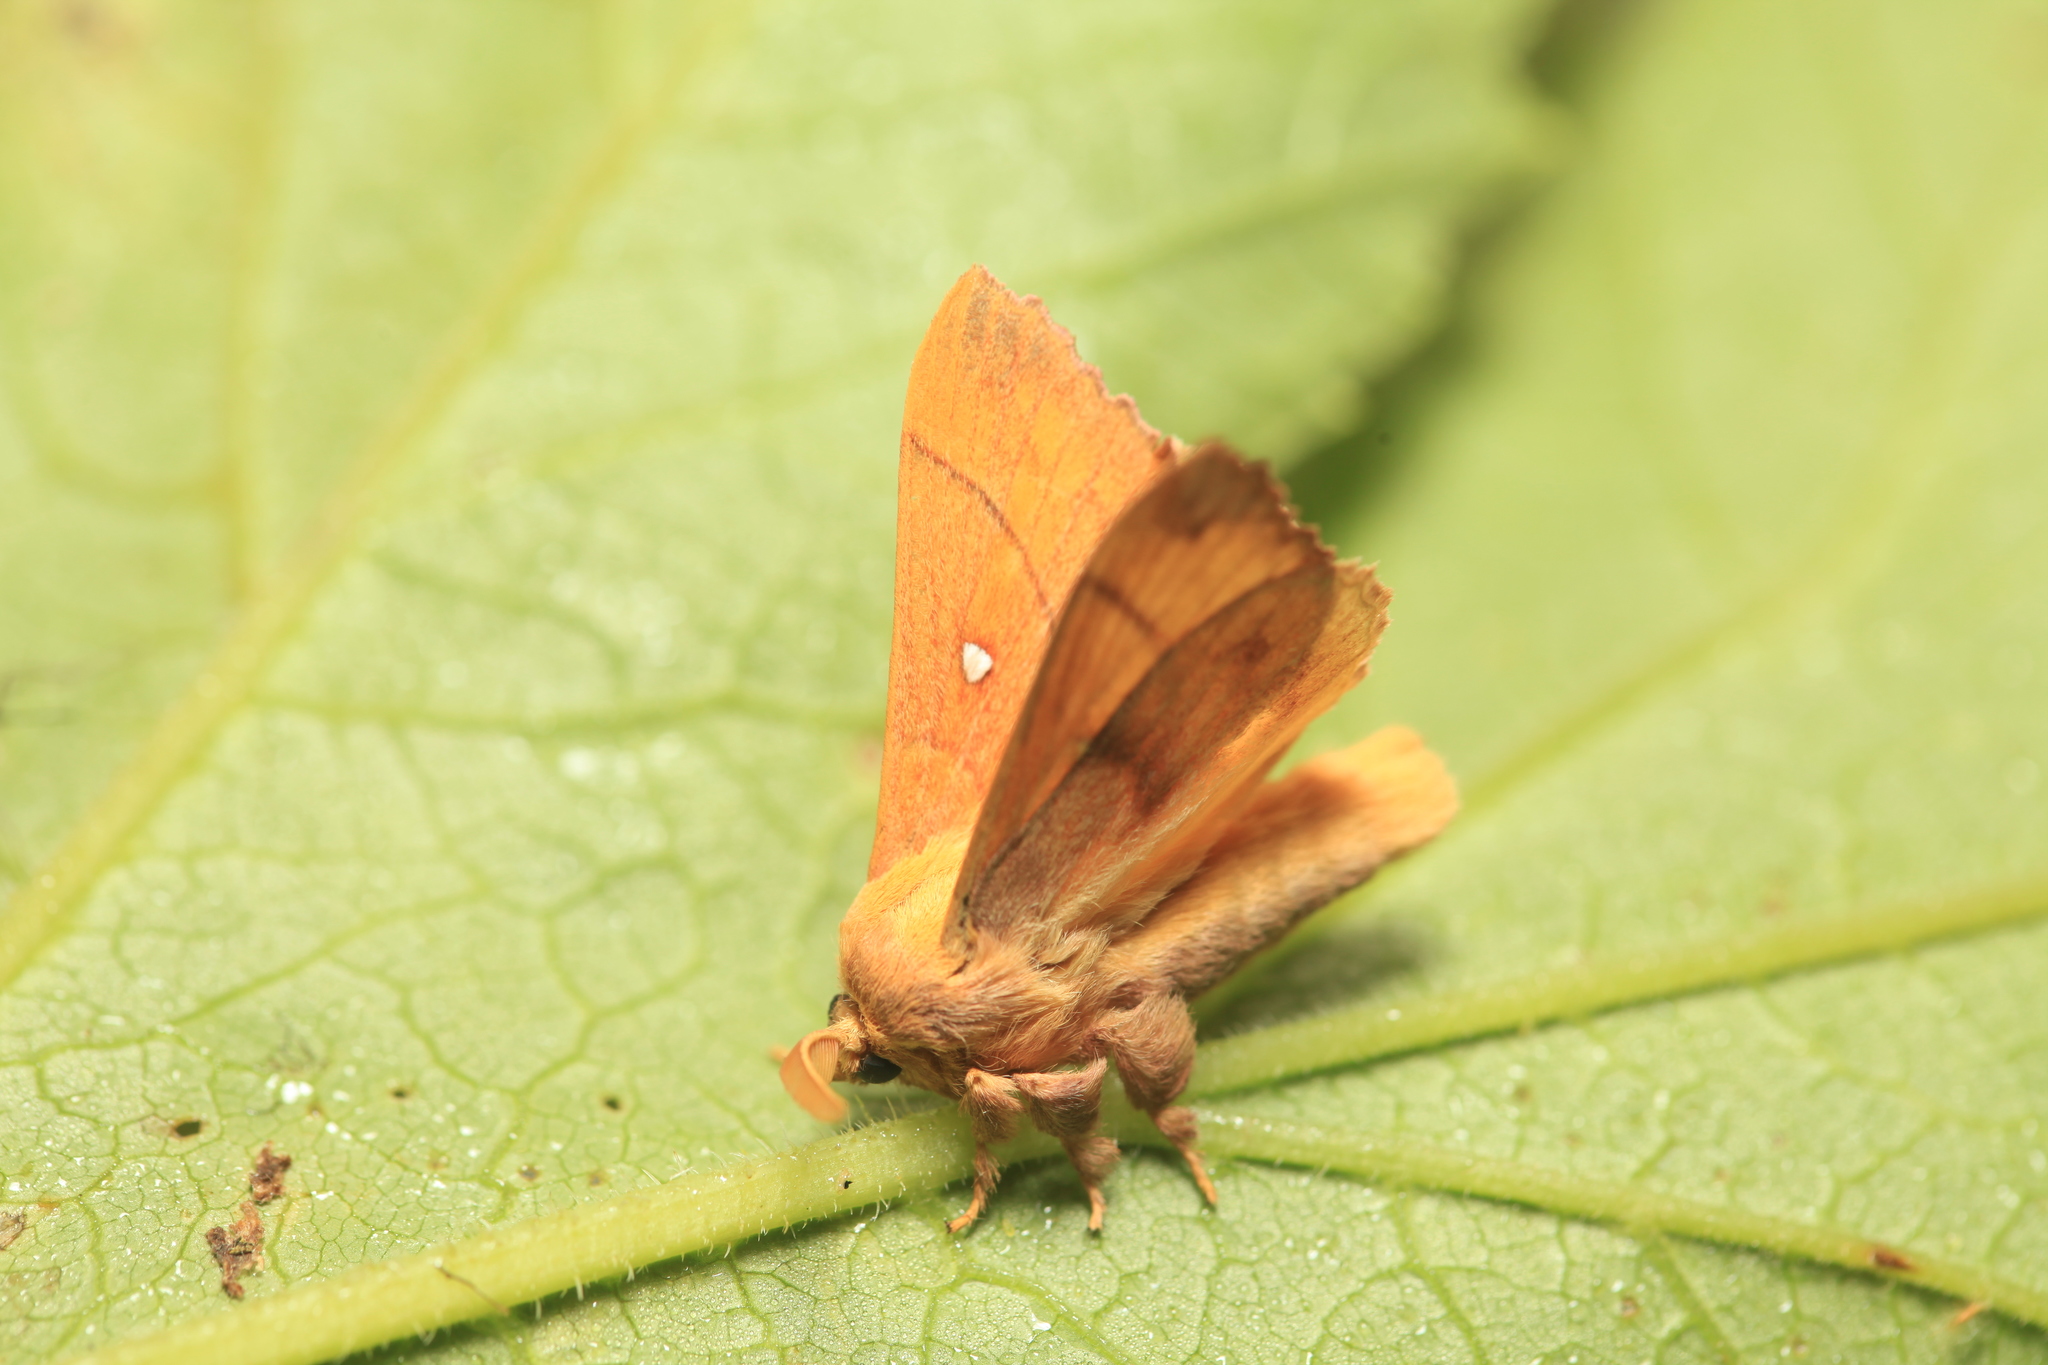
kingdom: Animalia
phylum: Arthropoda
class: Insecta
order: Lepidoptera
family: Lasiocampidae
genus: Odonestis
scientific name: Odonestis pruni
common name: Plum lappet
